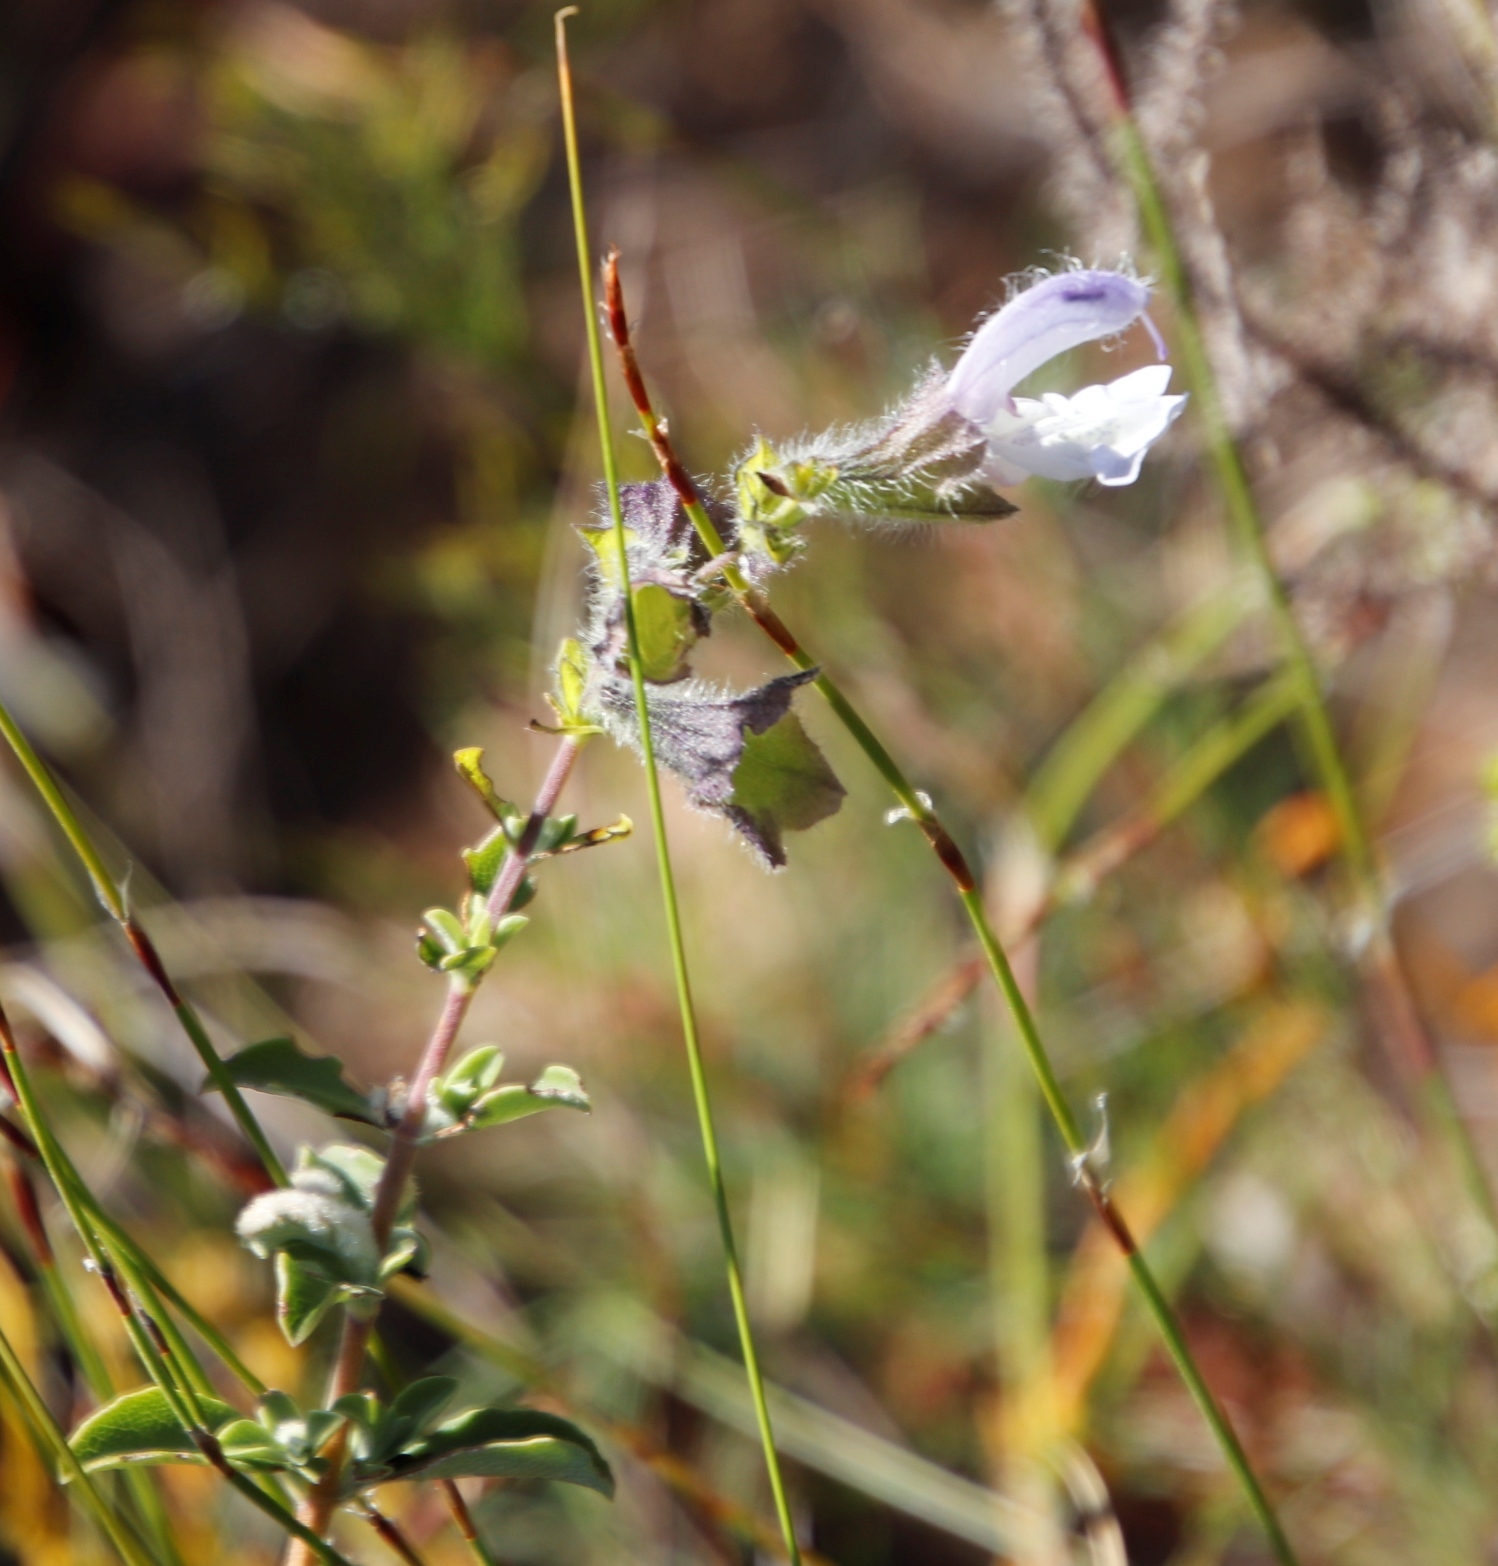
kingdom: Plantae
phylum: Tracheophyta
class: Magnoliopsida
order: Lamiales
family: Lamiaceae
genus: Salvia
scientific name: Salvia africana
